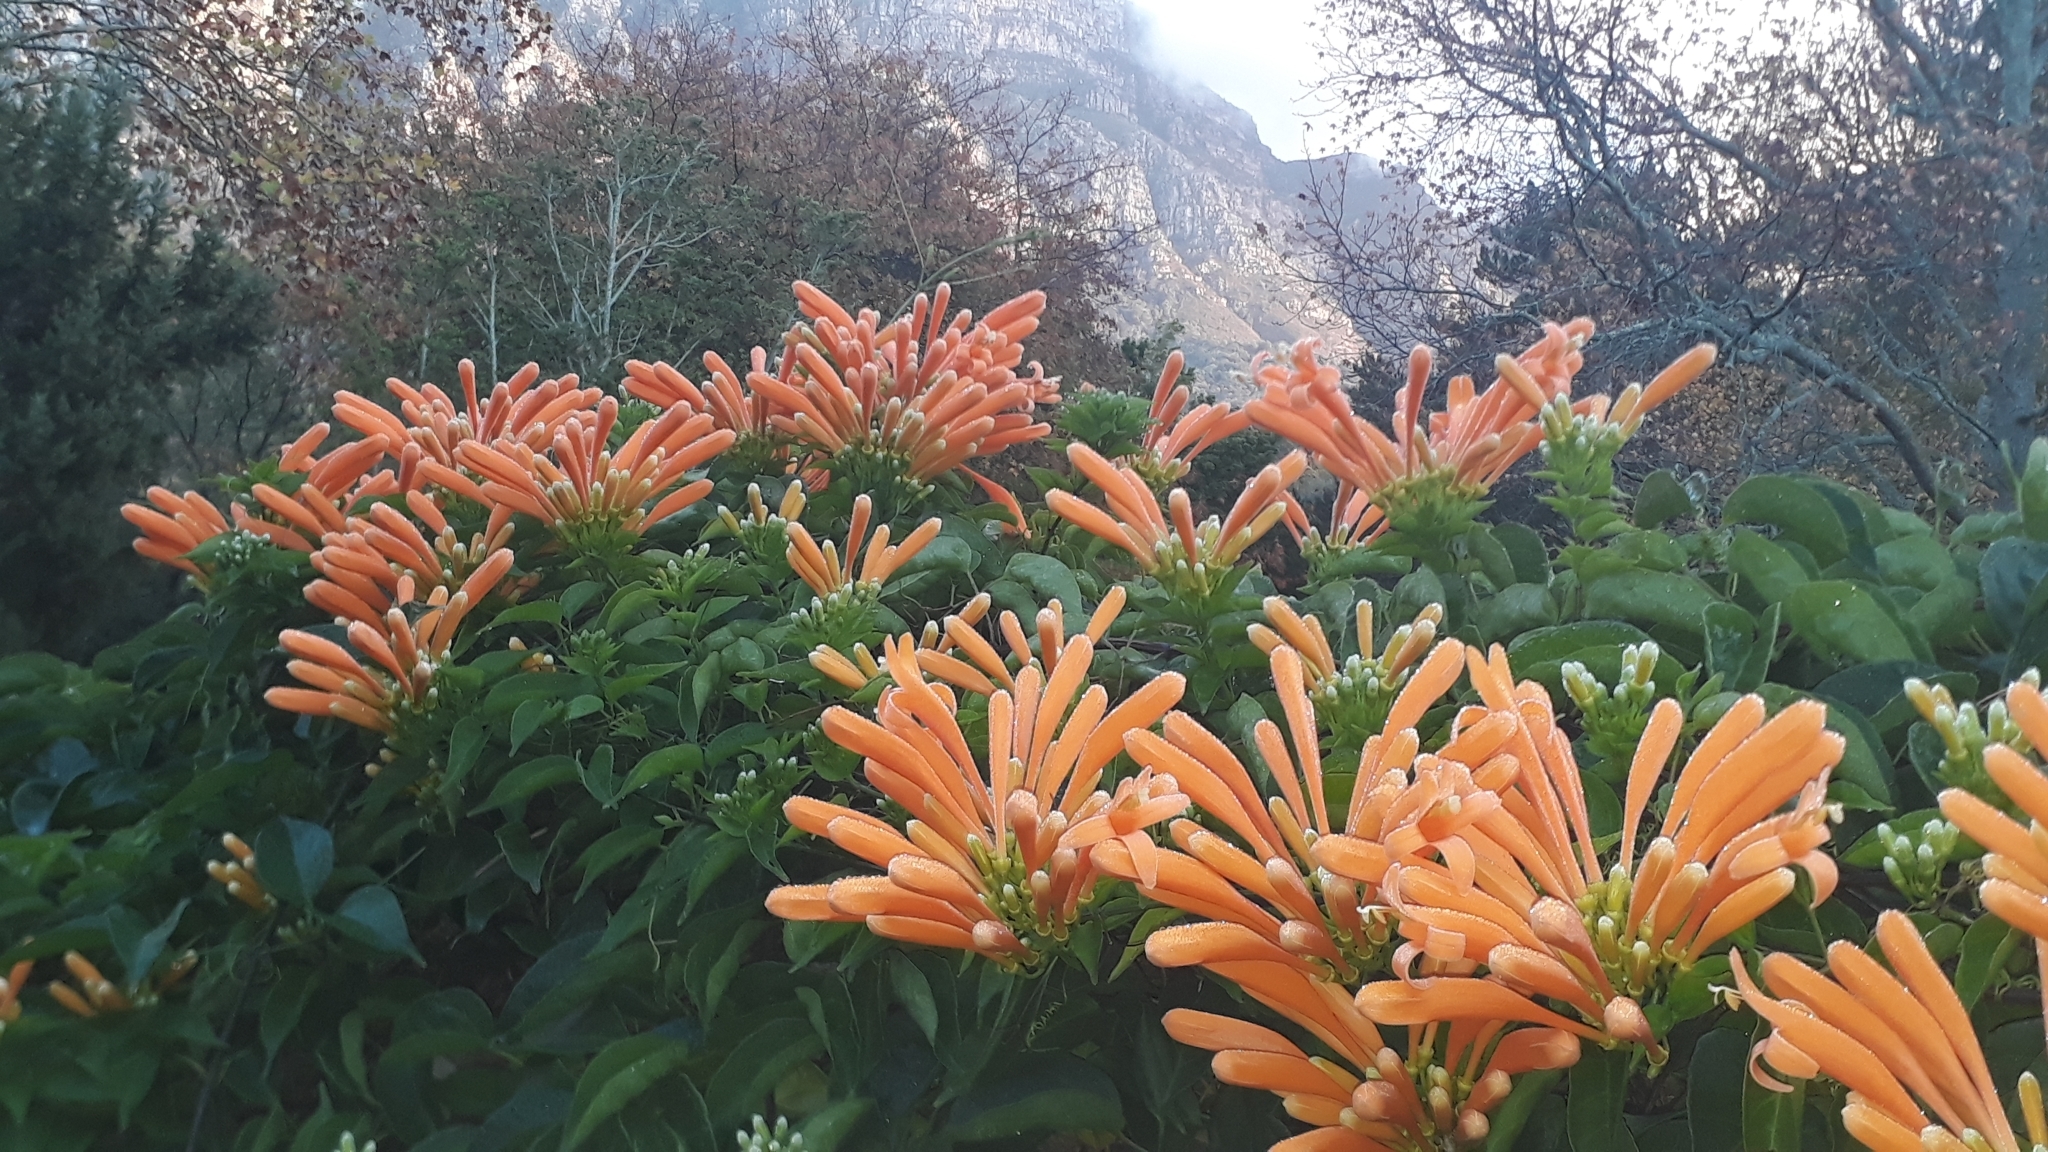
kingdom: Plantae
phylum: Tracheophyta
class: Magnoliopsida
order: Lamiales
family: Bignoniaceae
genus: Pyrostegia
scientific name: Pyrostegia venusta
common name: Flamevine
